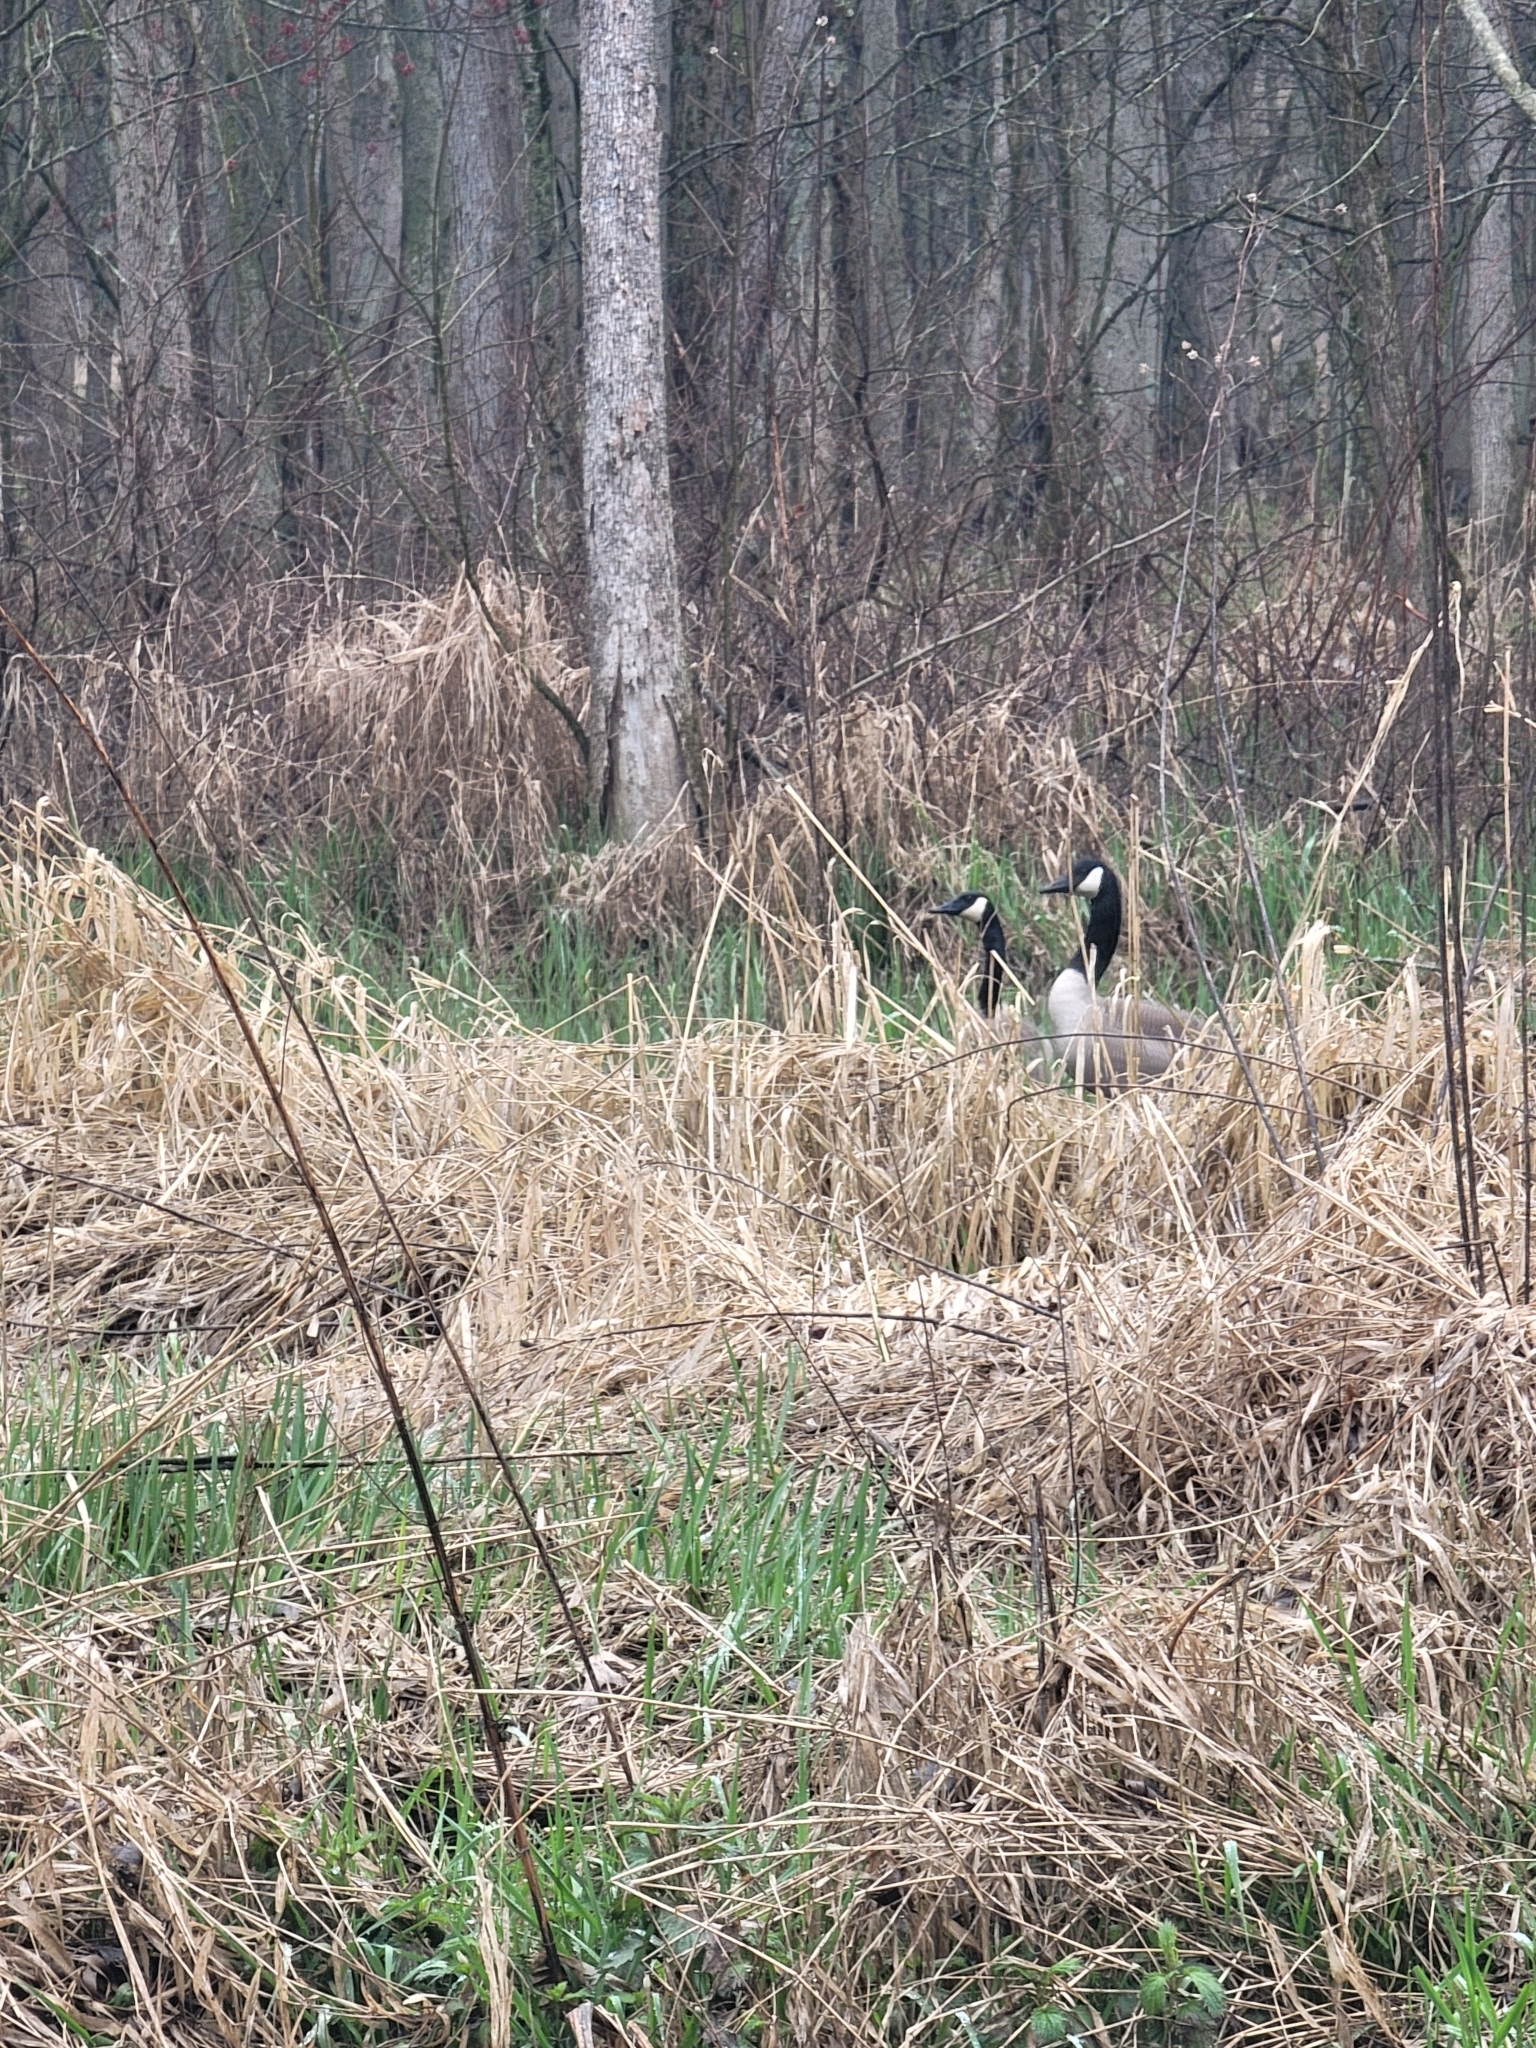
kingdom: Animalia
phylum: Chordata
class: Aves
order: Anseriformes
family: Anatidae
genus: Branta
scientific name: Branta canadensis
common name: Canada goose
